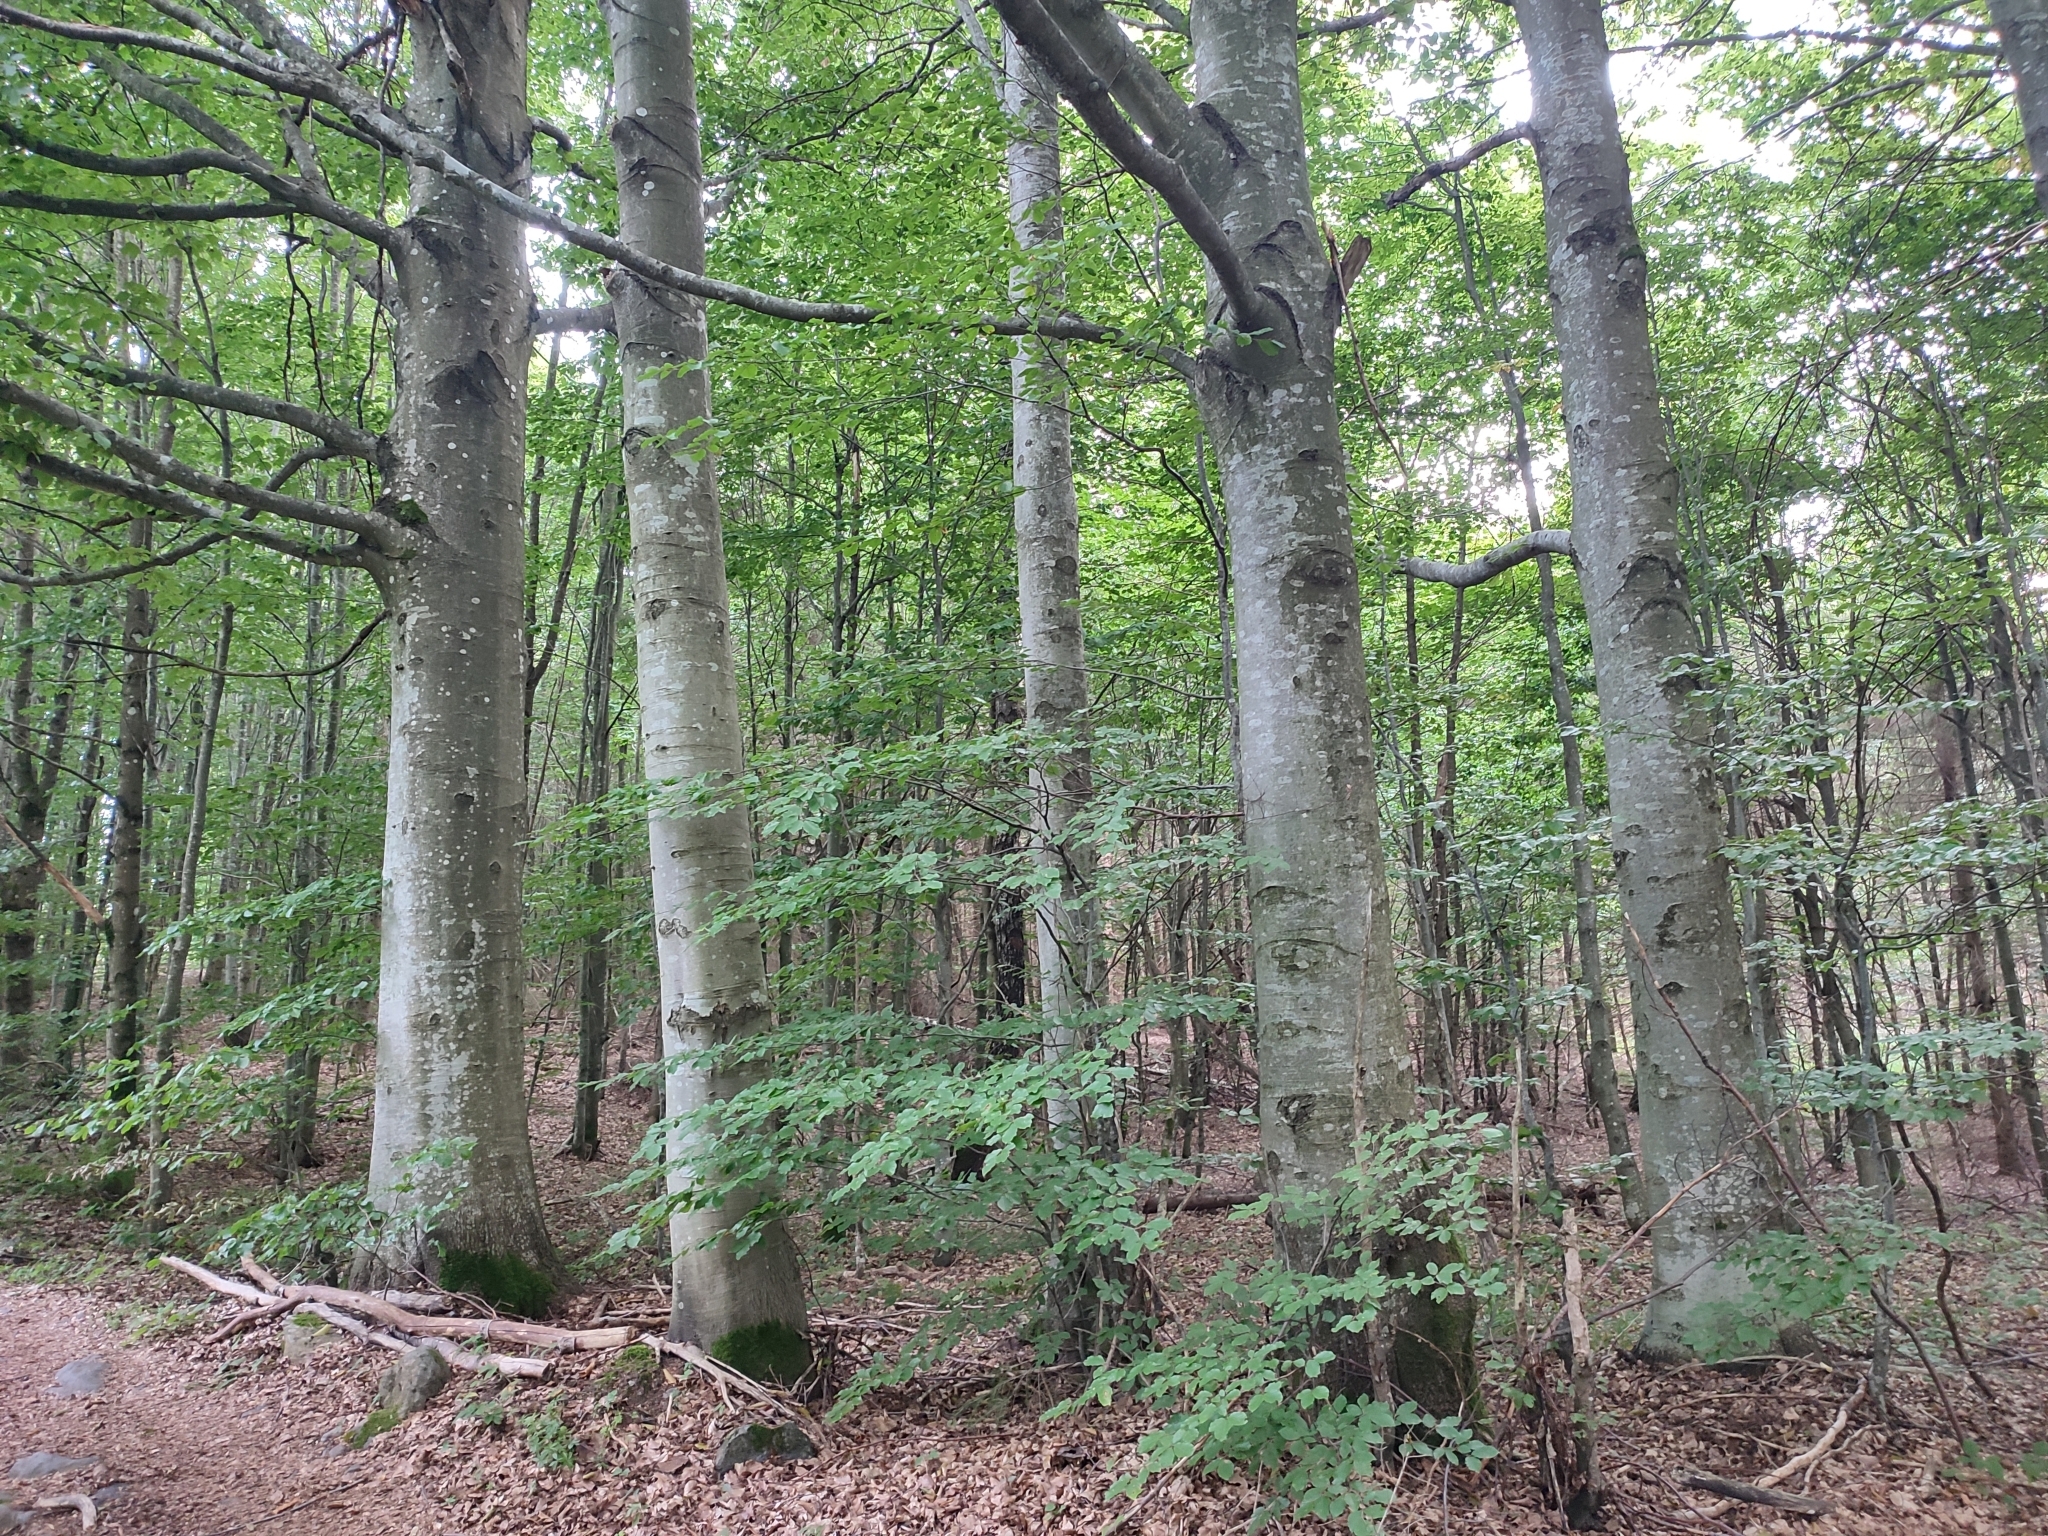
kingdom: Plantae
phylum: Tracheophyta
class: Magnoliopsida
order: Fagales
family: Fagaceae
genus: Fagus
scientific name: Fagus sylvatica
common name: Beech
